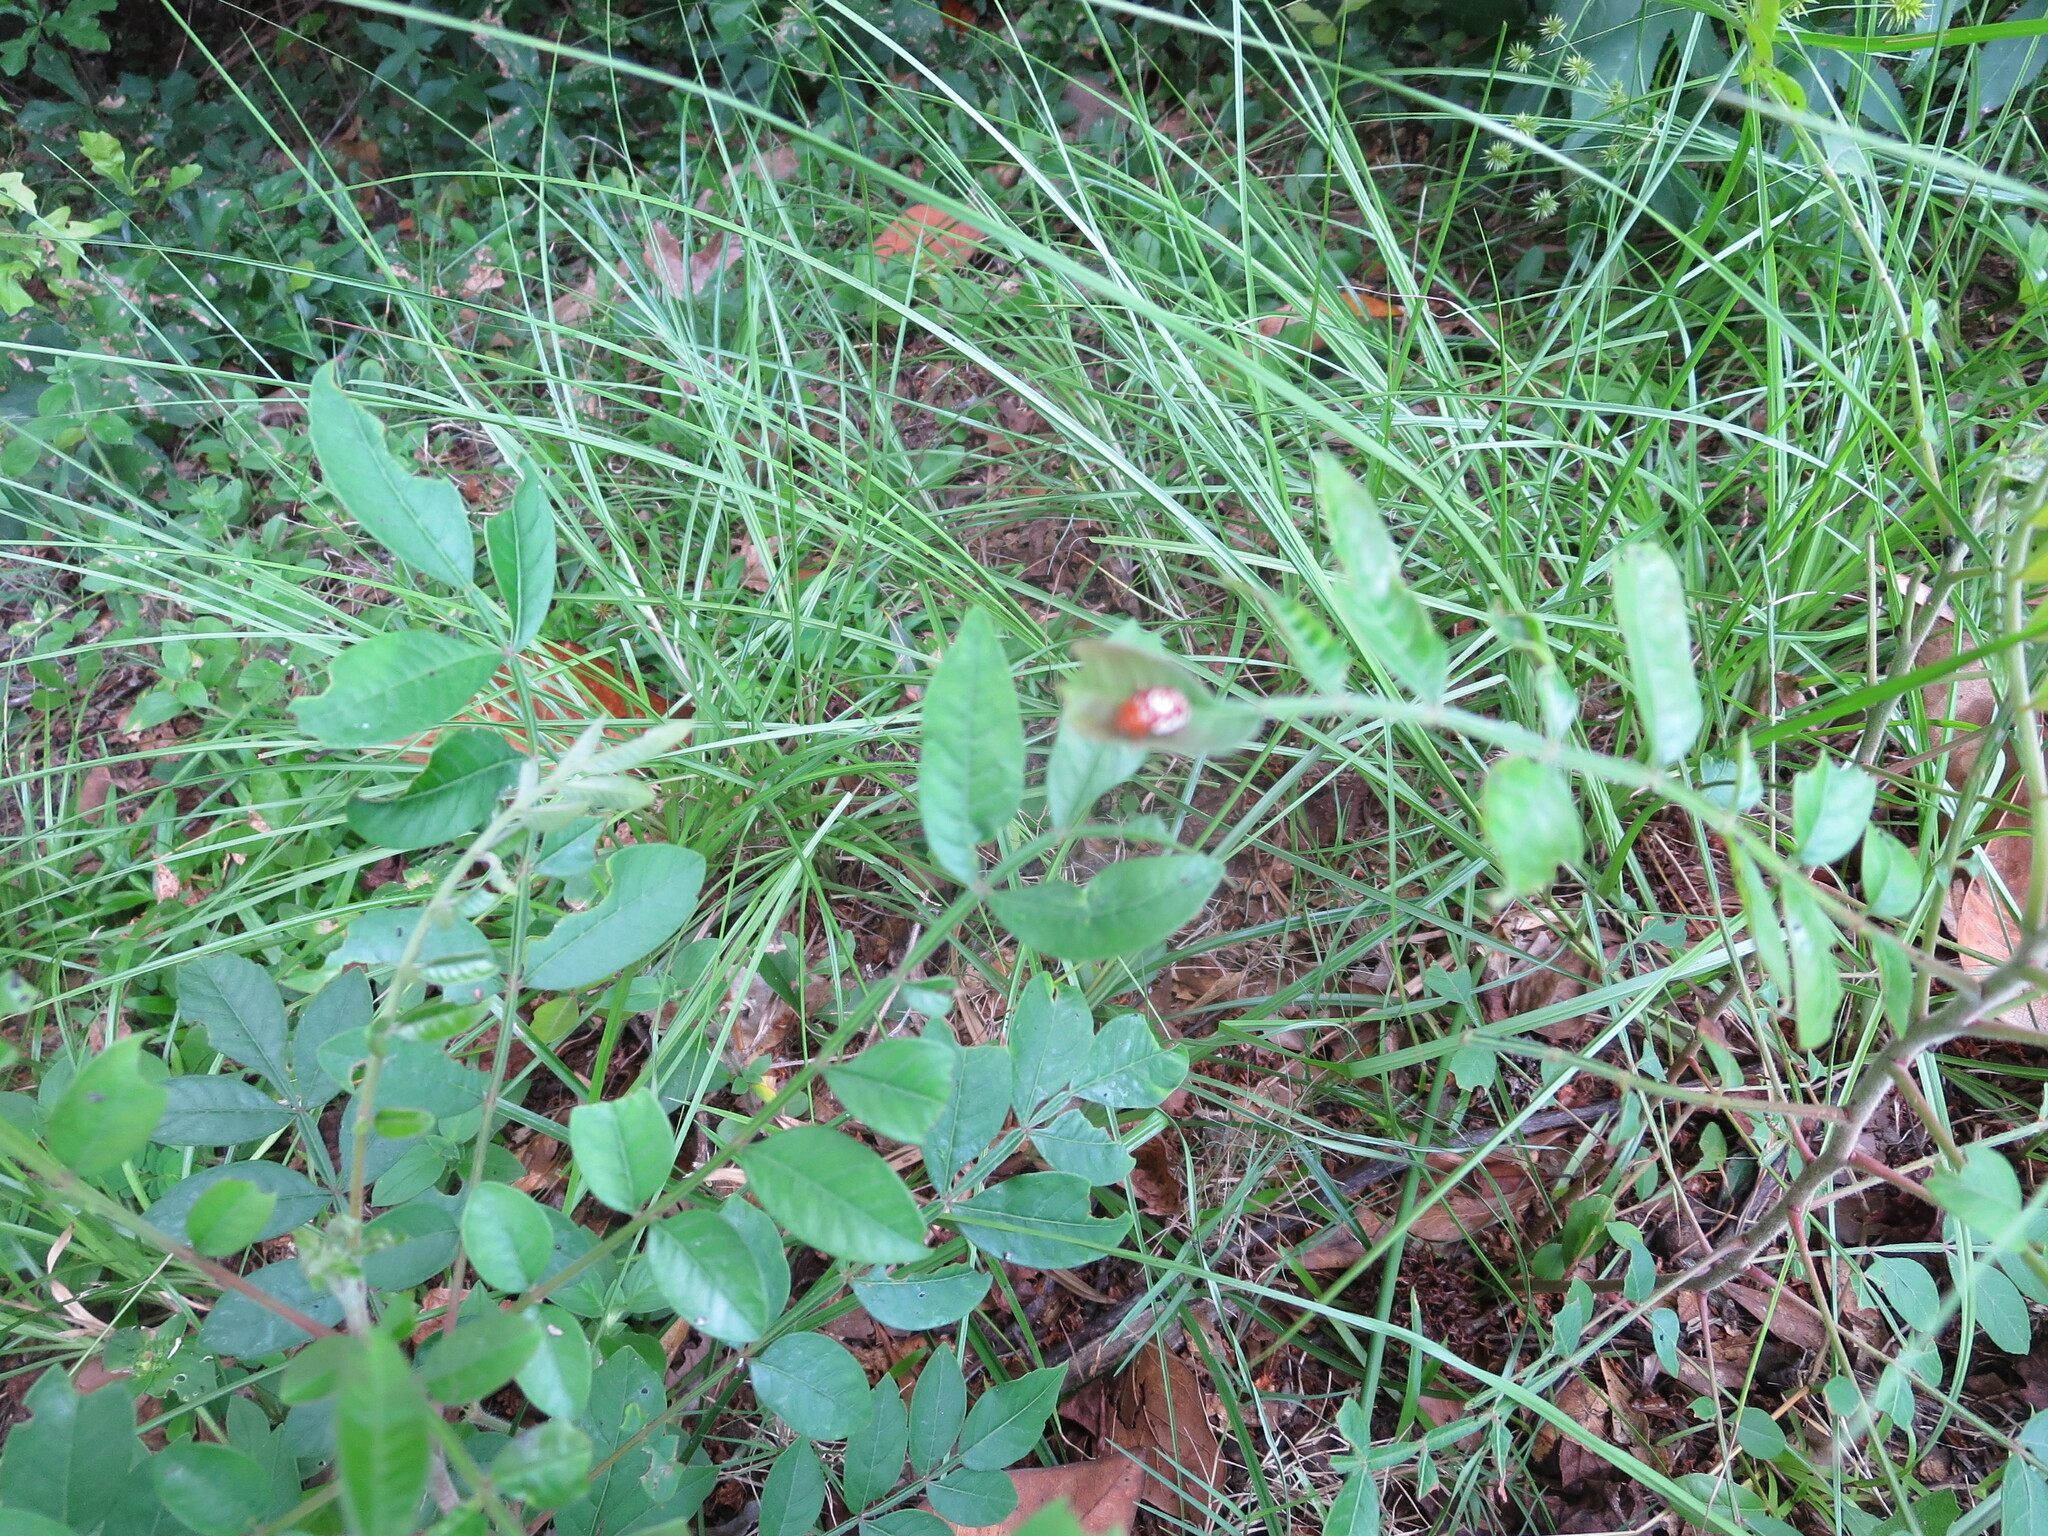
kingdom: Animalia
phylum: Arthropoda
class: Insecta
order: Coleoptera
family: Chrysomelidae
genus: Blepharida
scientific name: Blepharida rhois
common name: Sumac flea beetle
